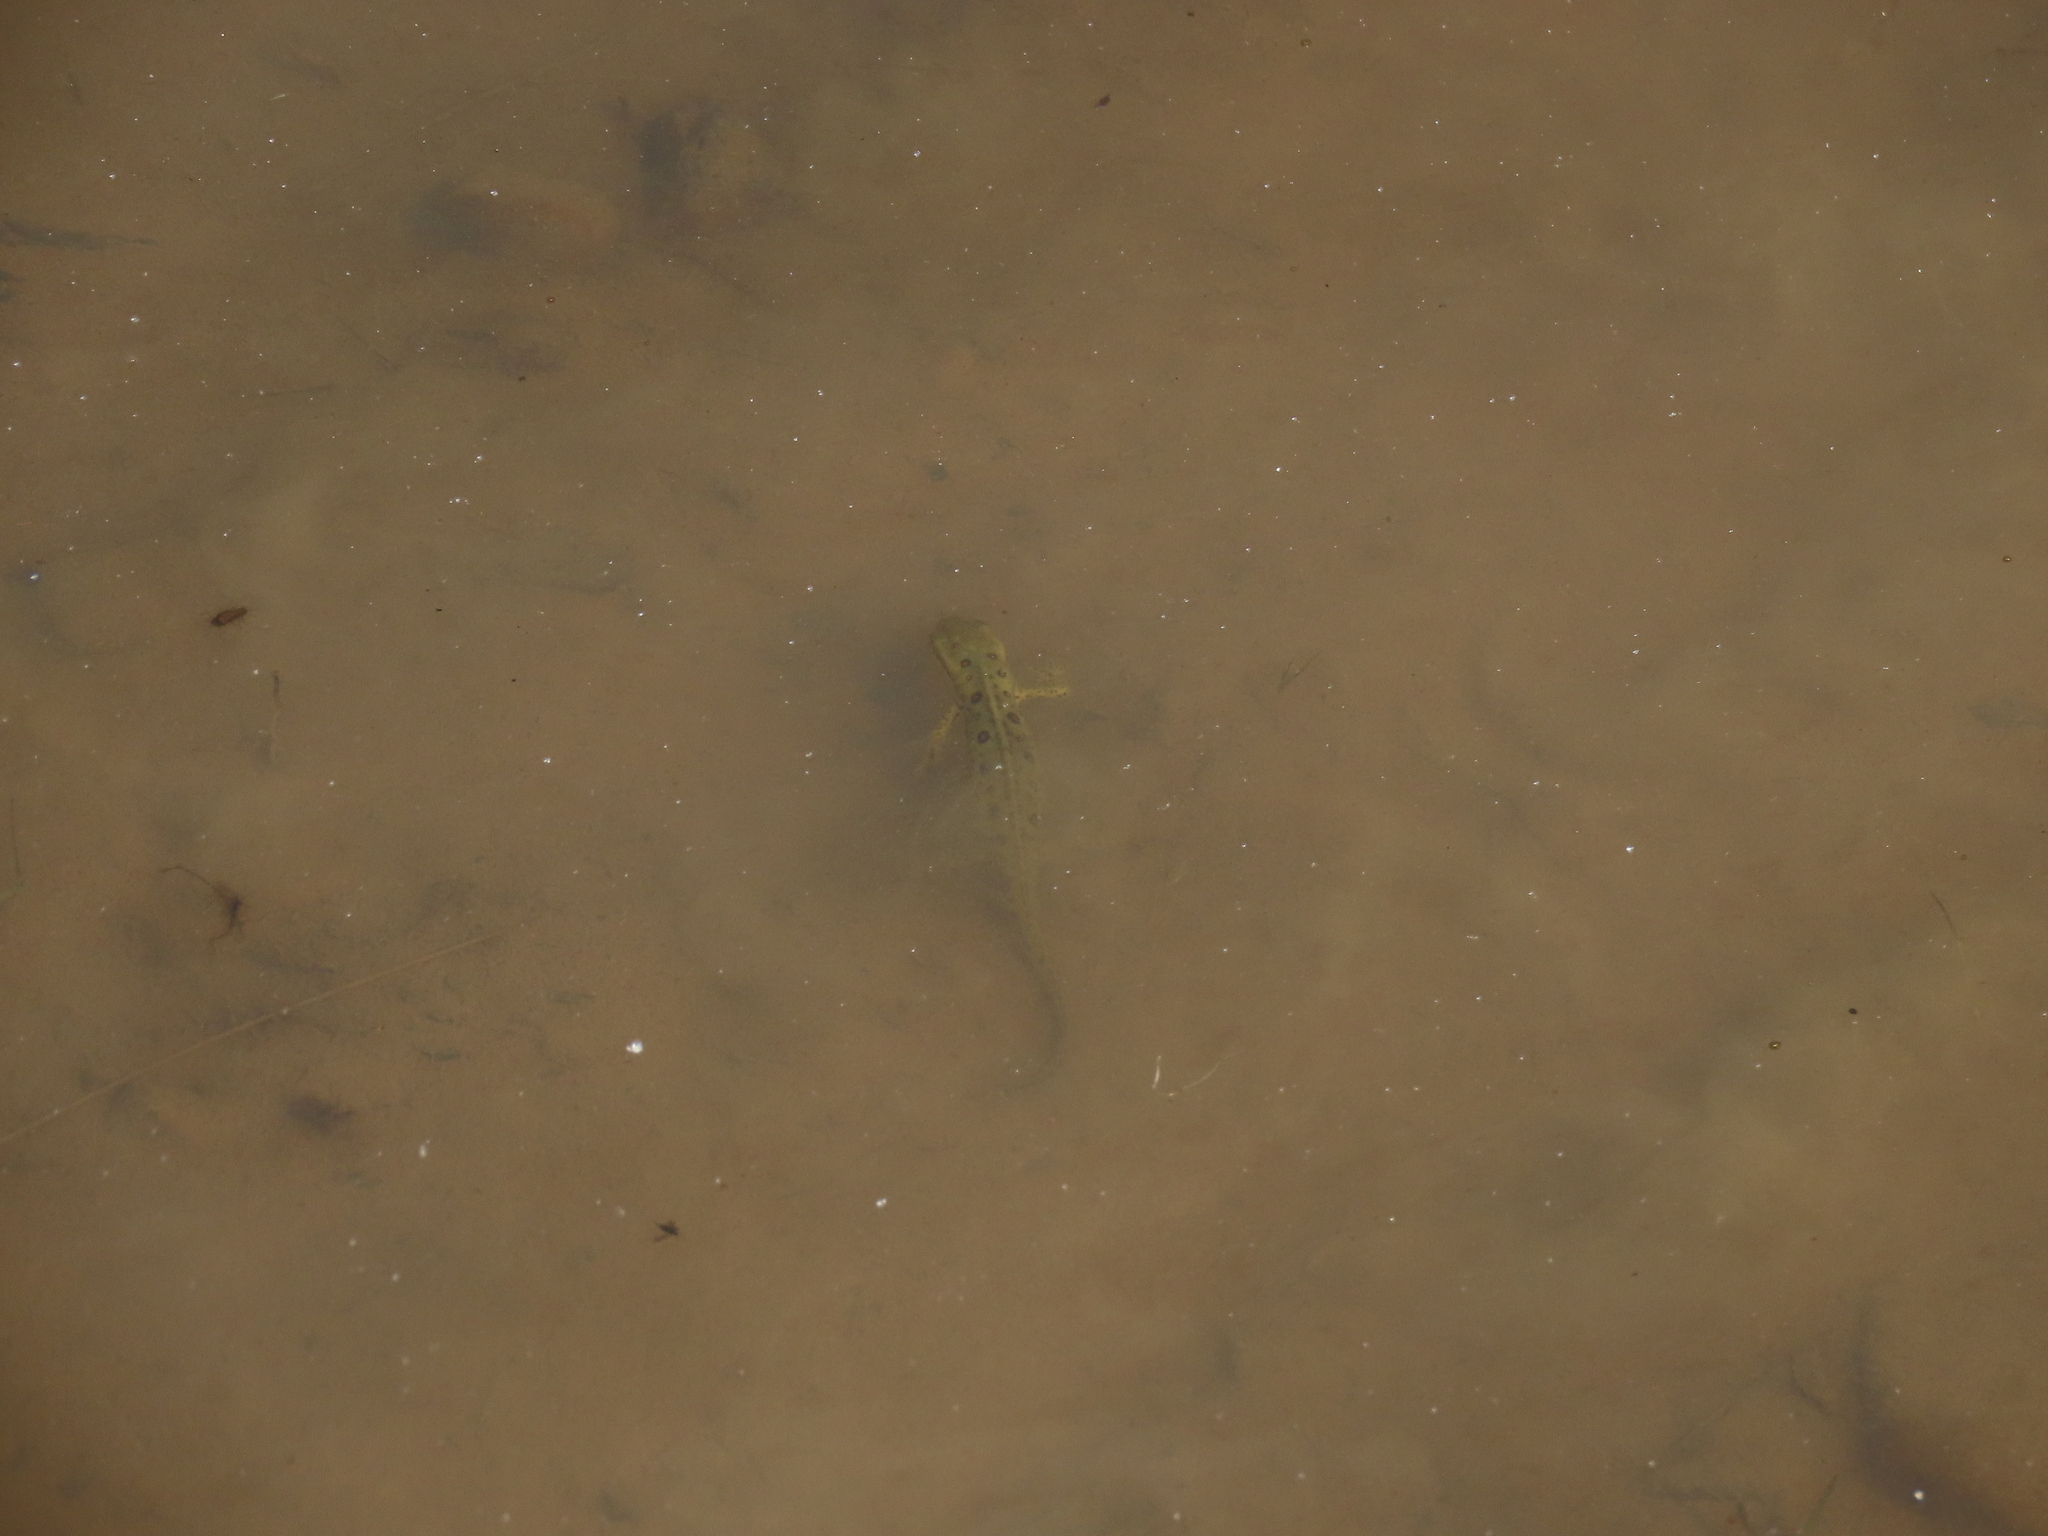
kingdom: Animalia
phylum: Chordata
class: Amphibia
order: Caudata
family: Salamandridae
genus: Notophthalmus
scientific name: Notophthalmus viridescens
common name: Eastern newt
